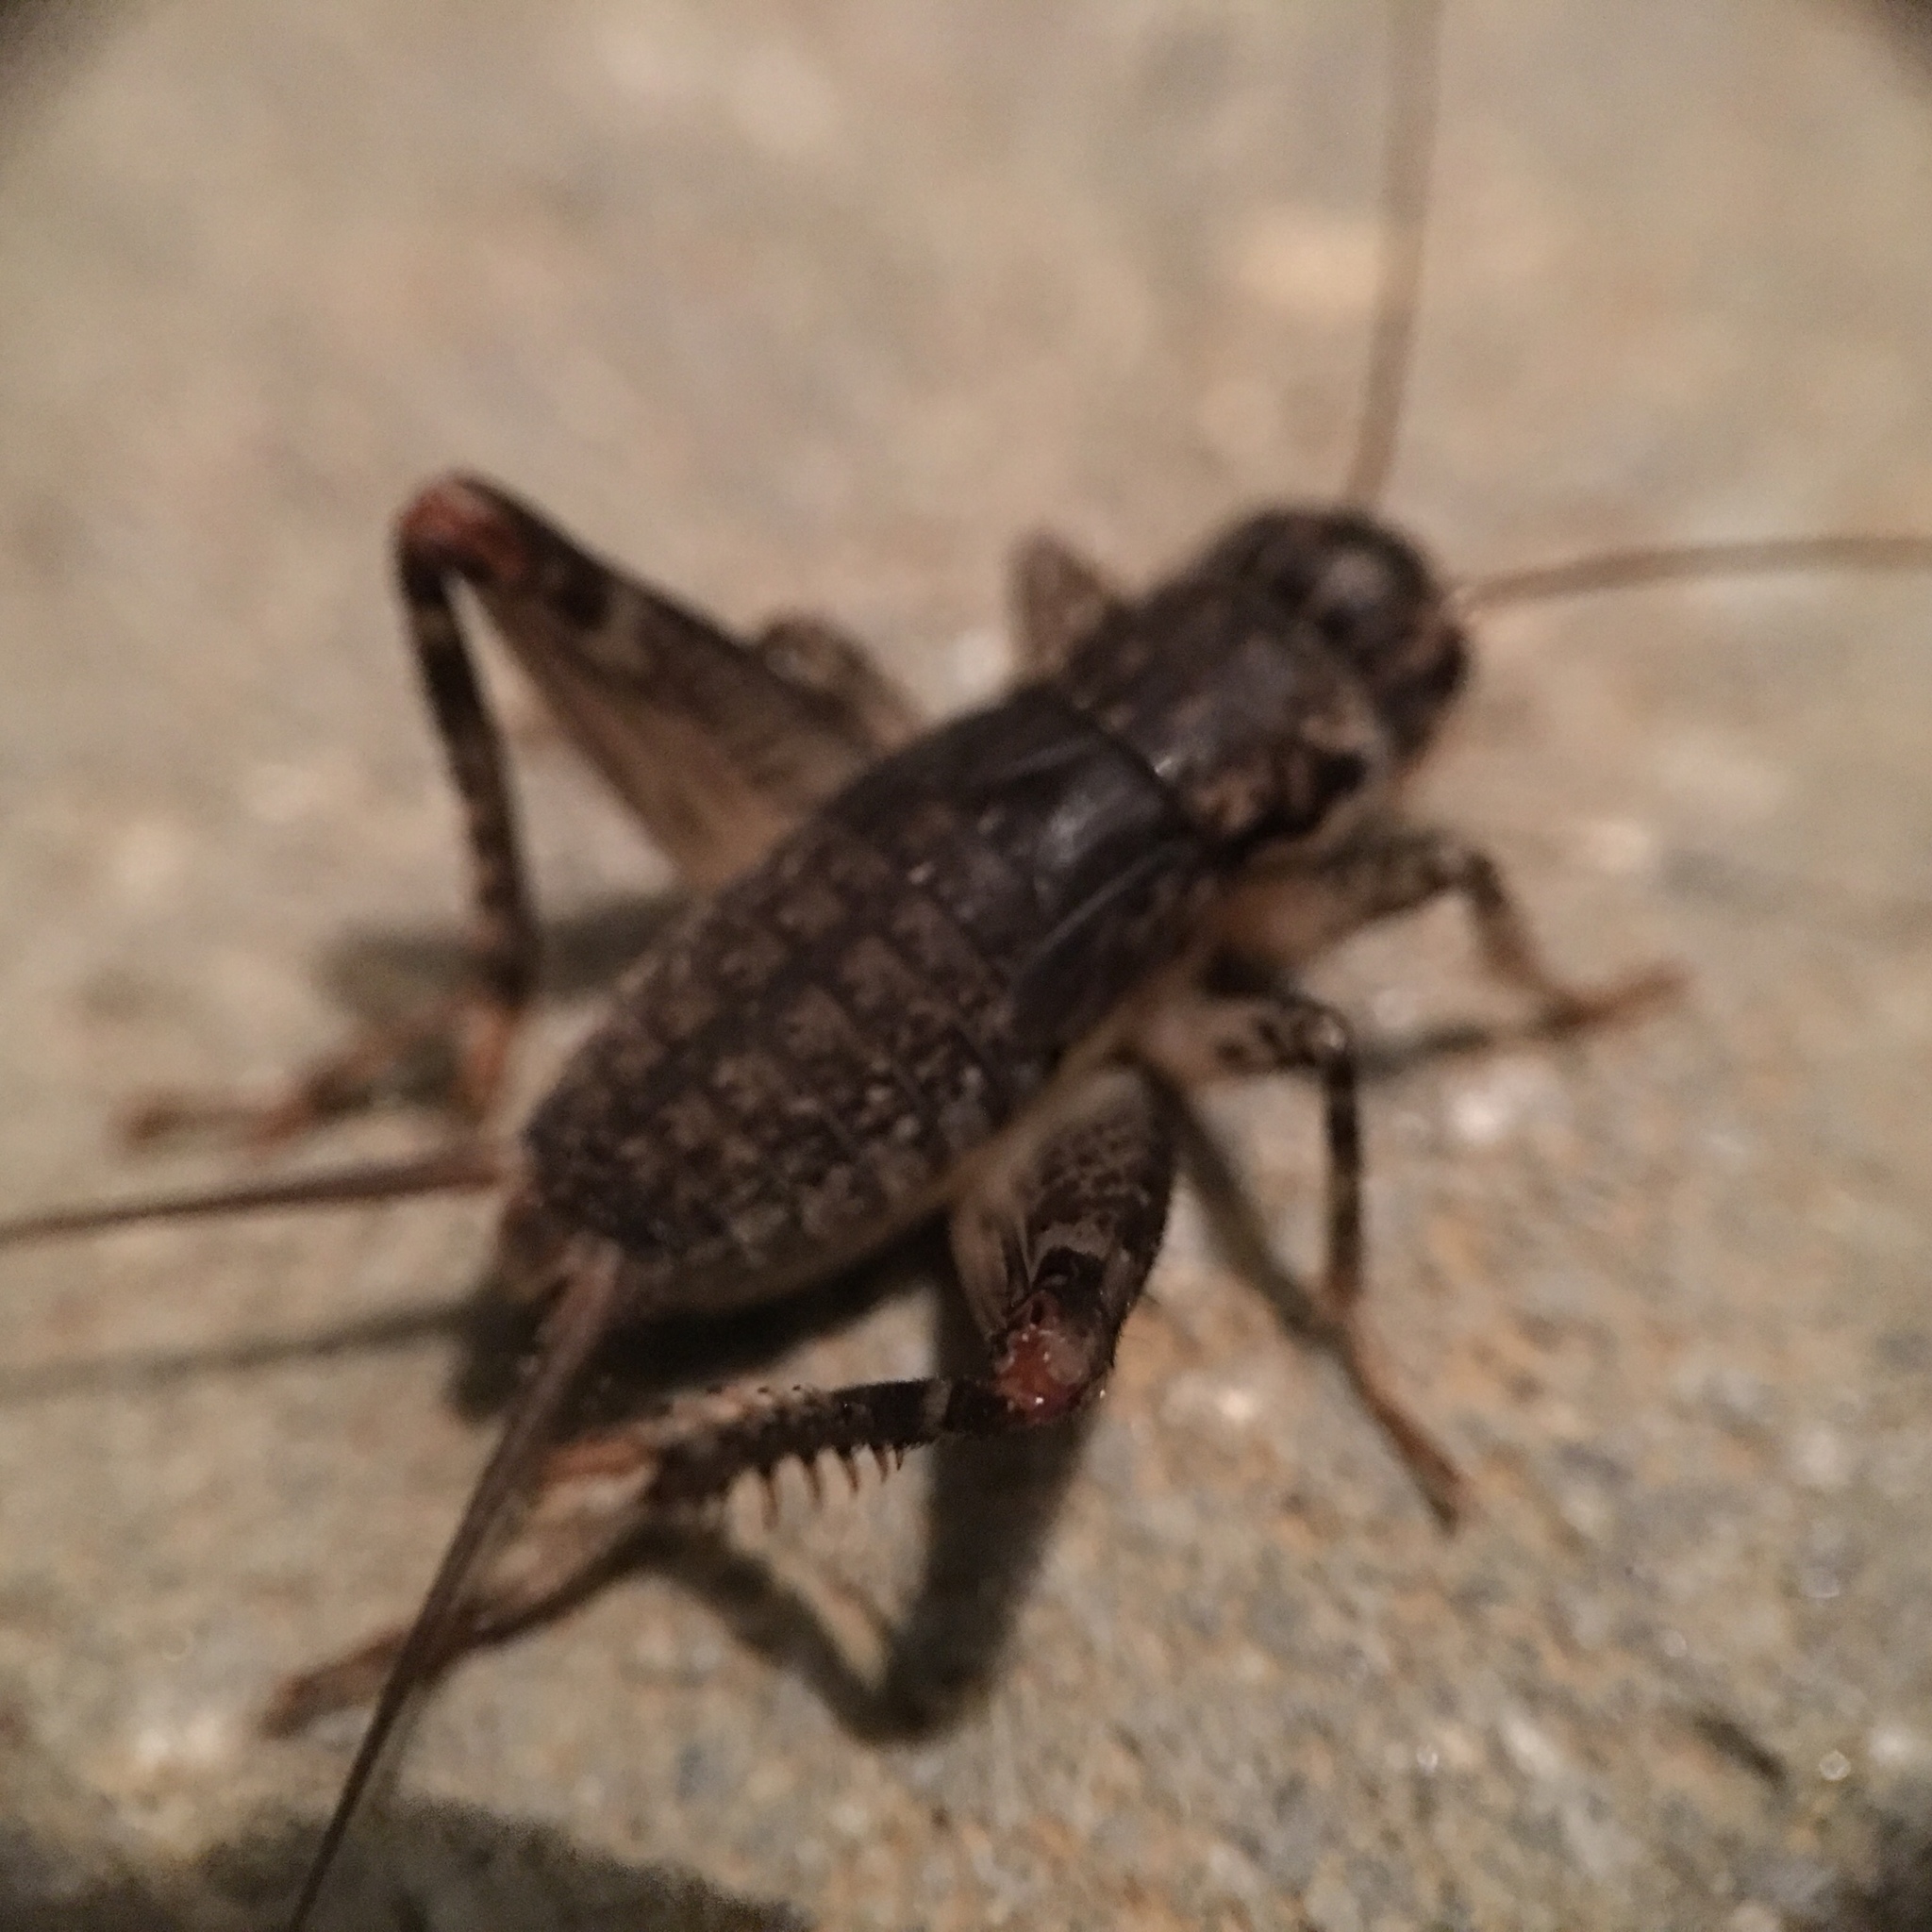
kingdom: Animalia
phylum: Arthropoda
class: Insecta
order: Orthoptera
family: Gryllidae
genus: Velarifictorus
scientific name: Velarifictorus micado
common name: Japanese burrowing cricket
